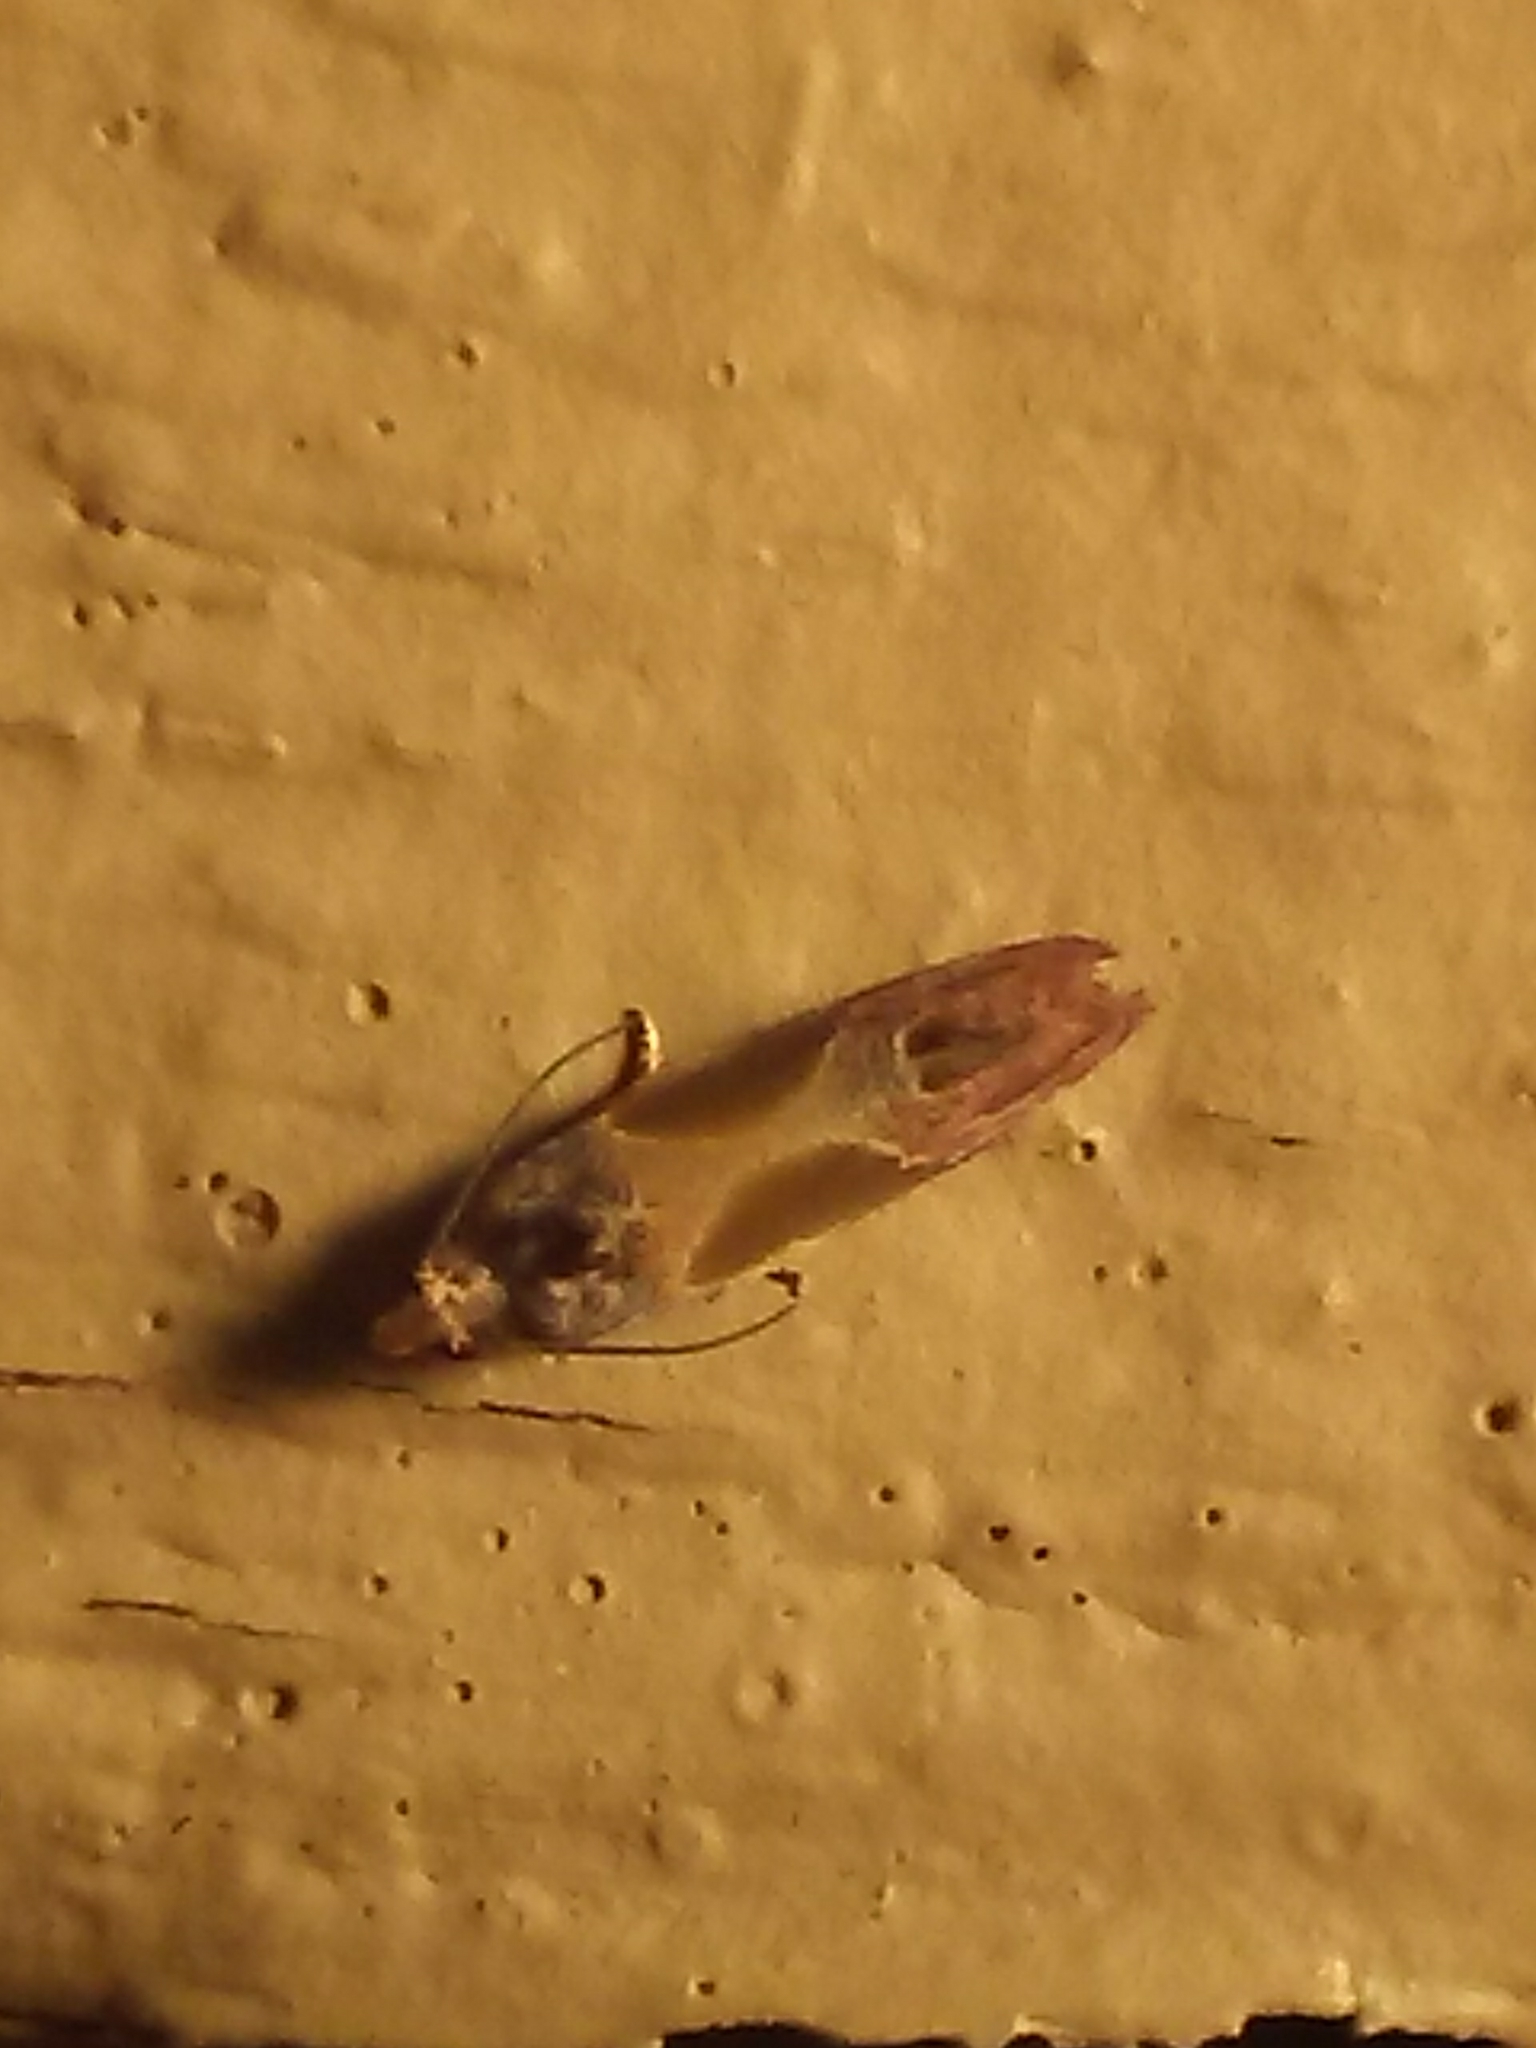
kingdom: Animalia
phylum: Arthropoda
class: Insecta
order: Lepidoptera
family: Tortricidae
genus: Eumarozia
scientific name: Eumarozia malachitana
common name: Sculptured moth
